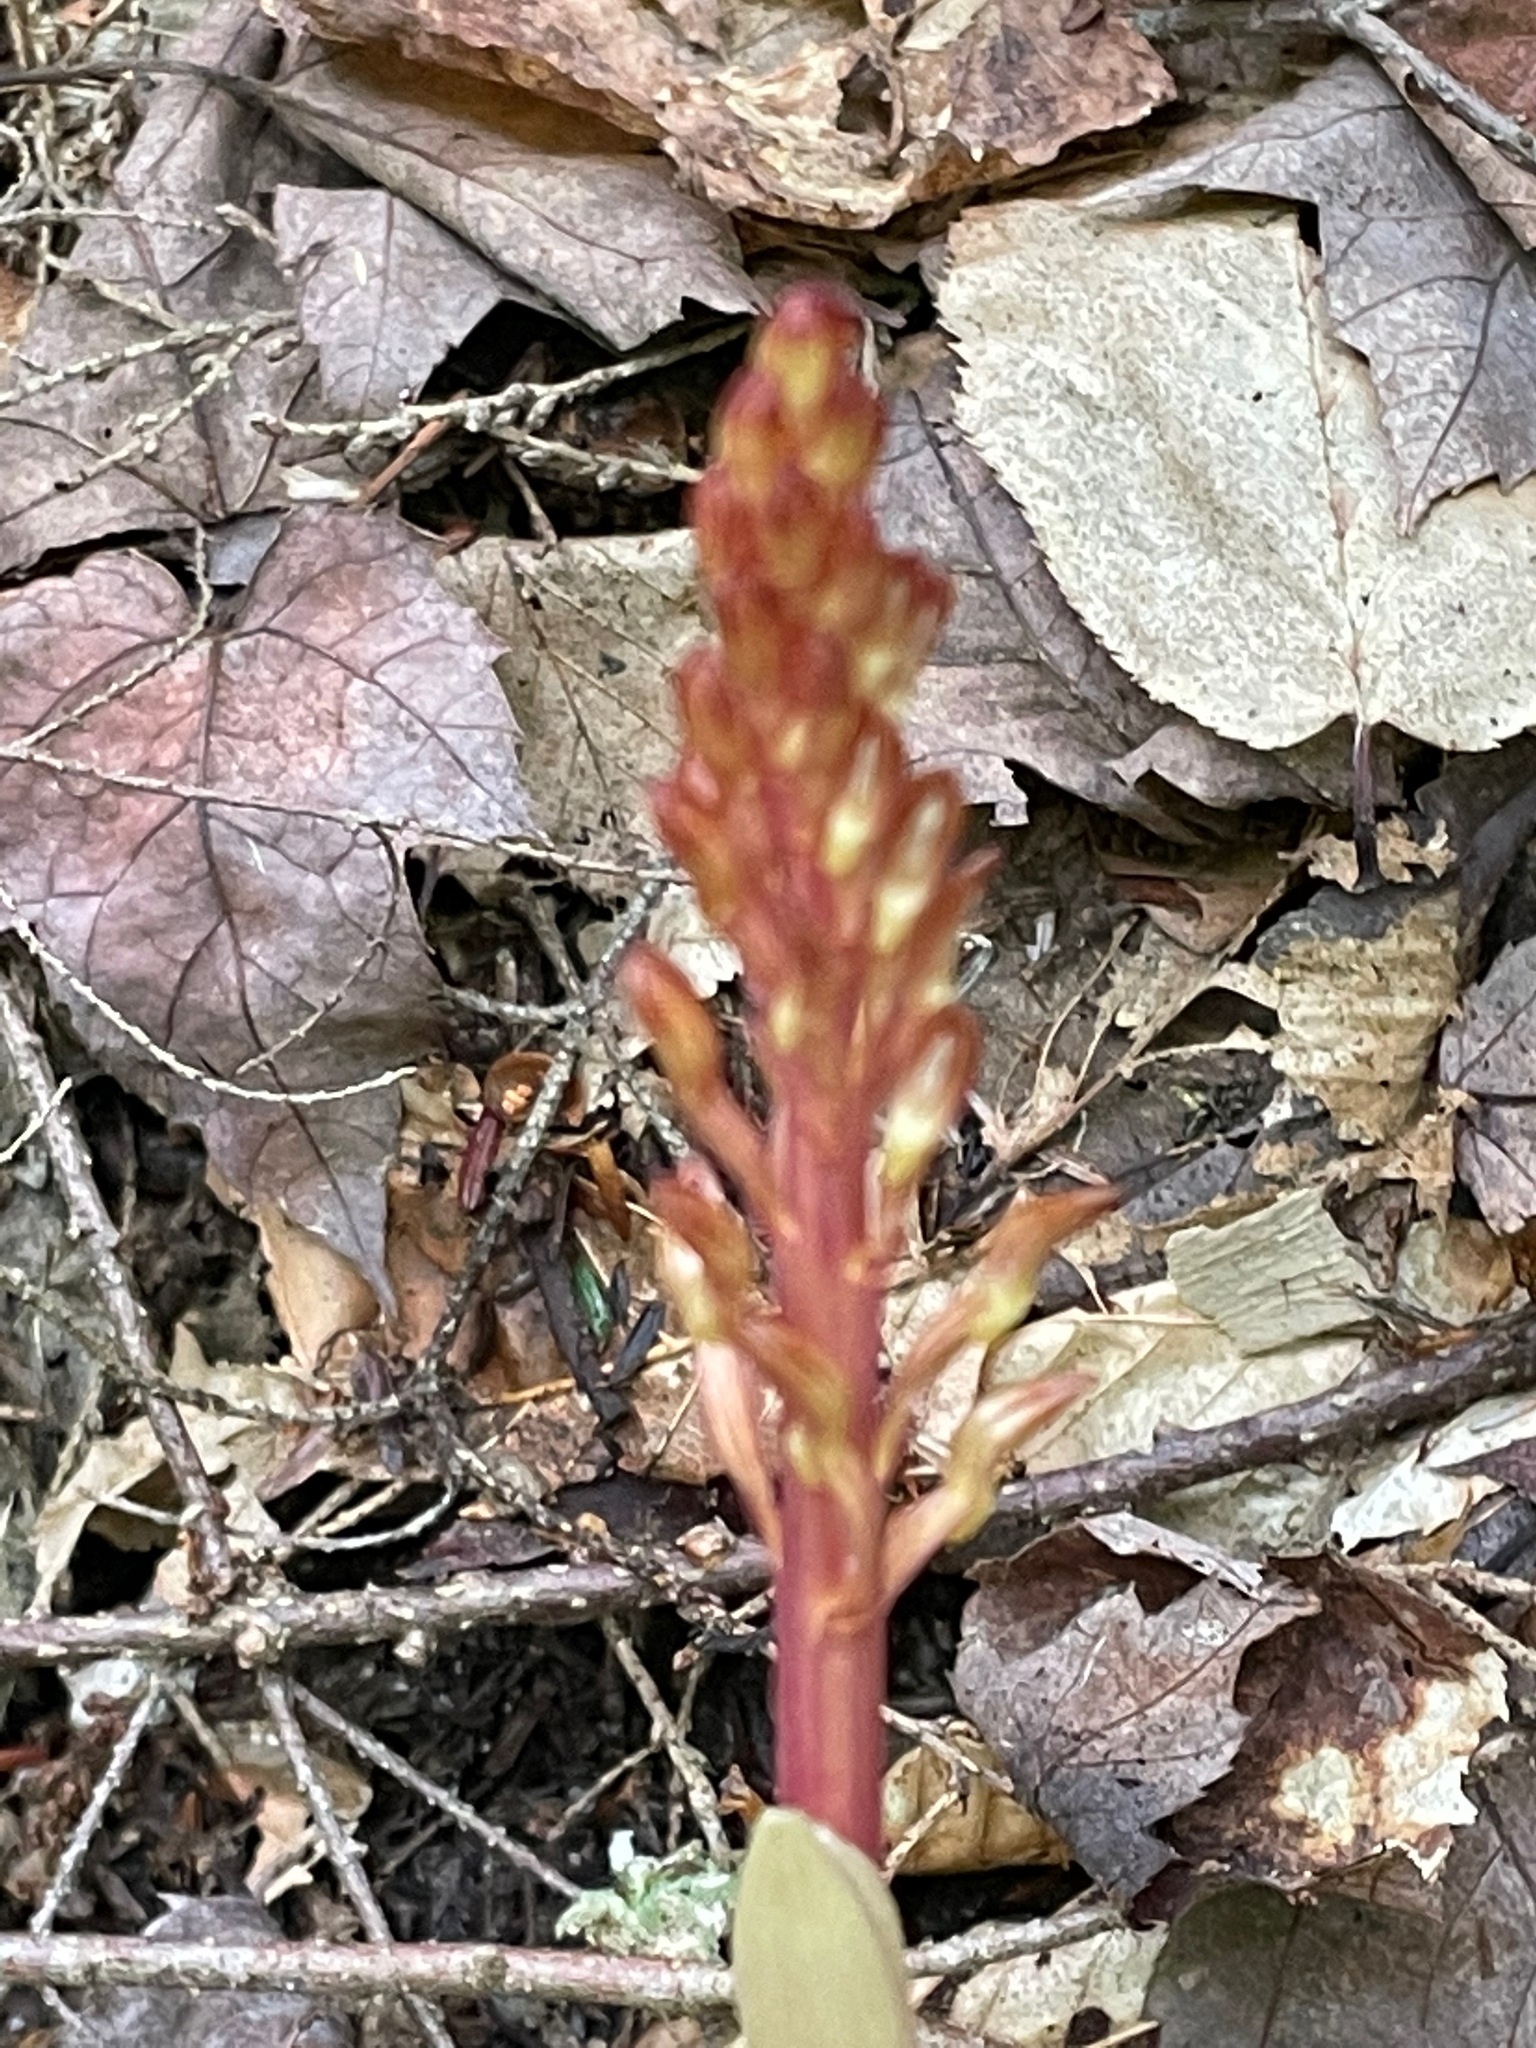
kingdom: Plantae
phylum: Tracheophyta
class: Liliopsida
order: Asparagales
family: Orchidaceae
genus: Corallorhiza
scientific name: Corallorhiza maculata
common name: Spotted coralroot
